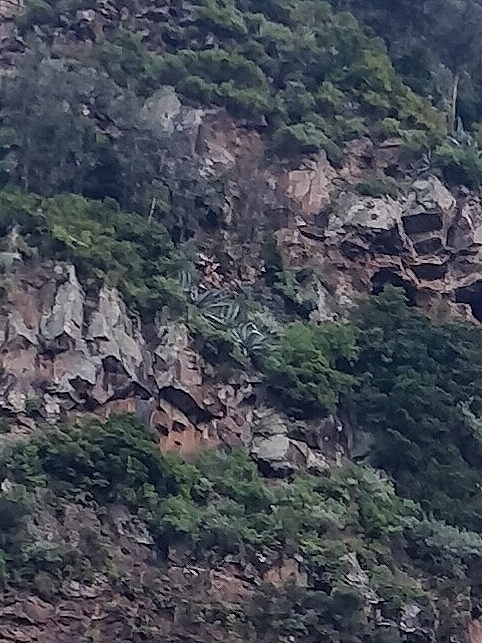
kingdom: Plantae
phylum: Tracheophyta
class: Liliopsida
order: Asparagales
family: Asparagaceae
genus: Agave
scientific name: Agave americana
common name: Centuryplant
